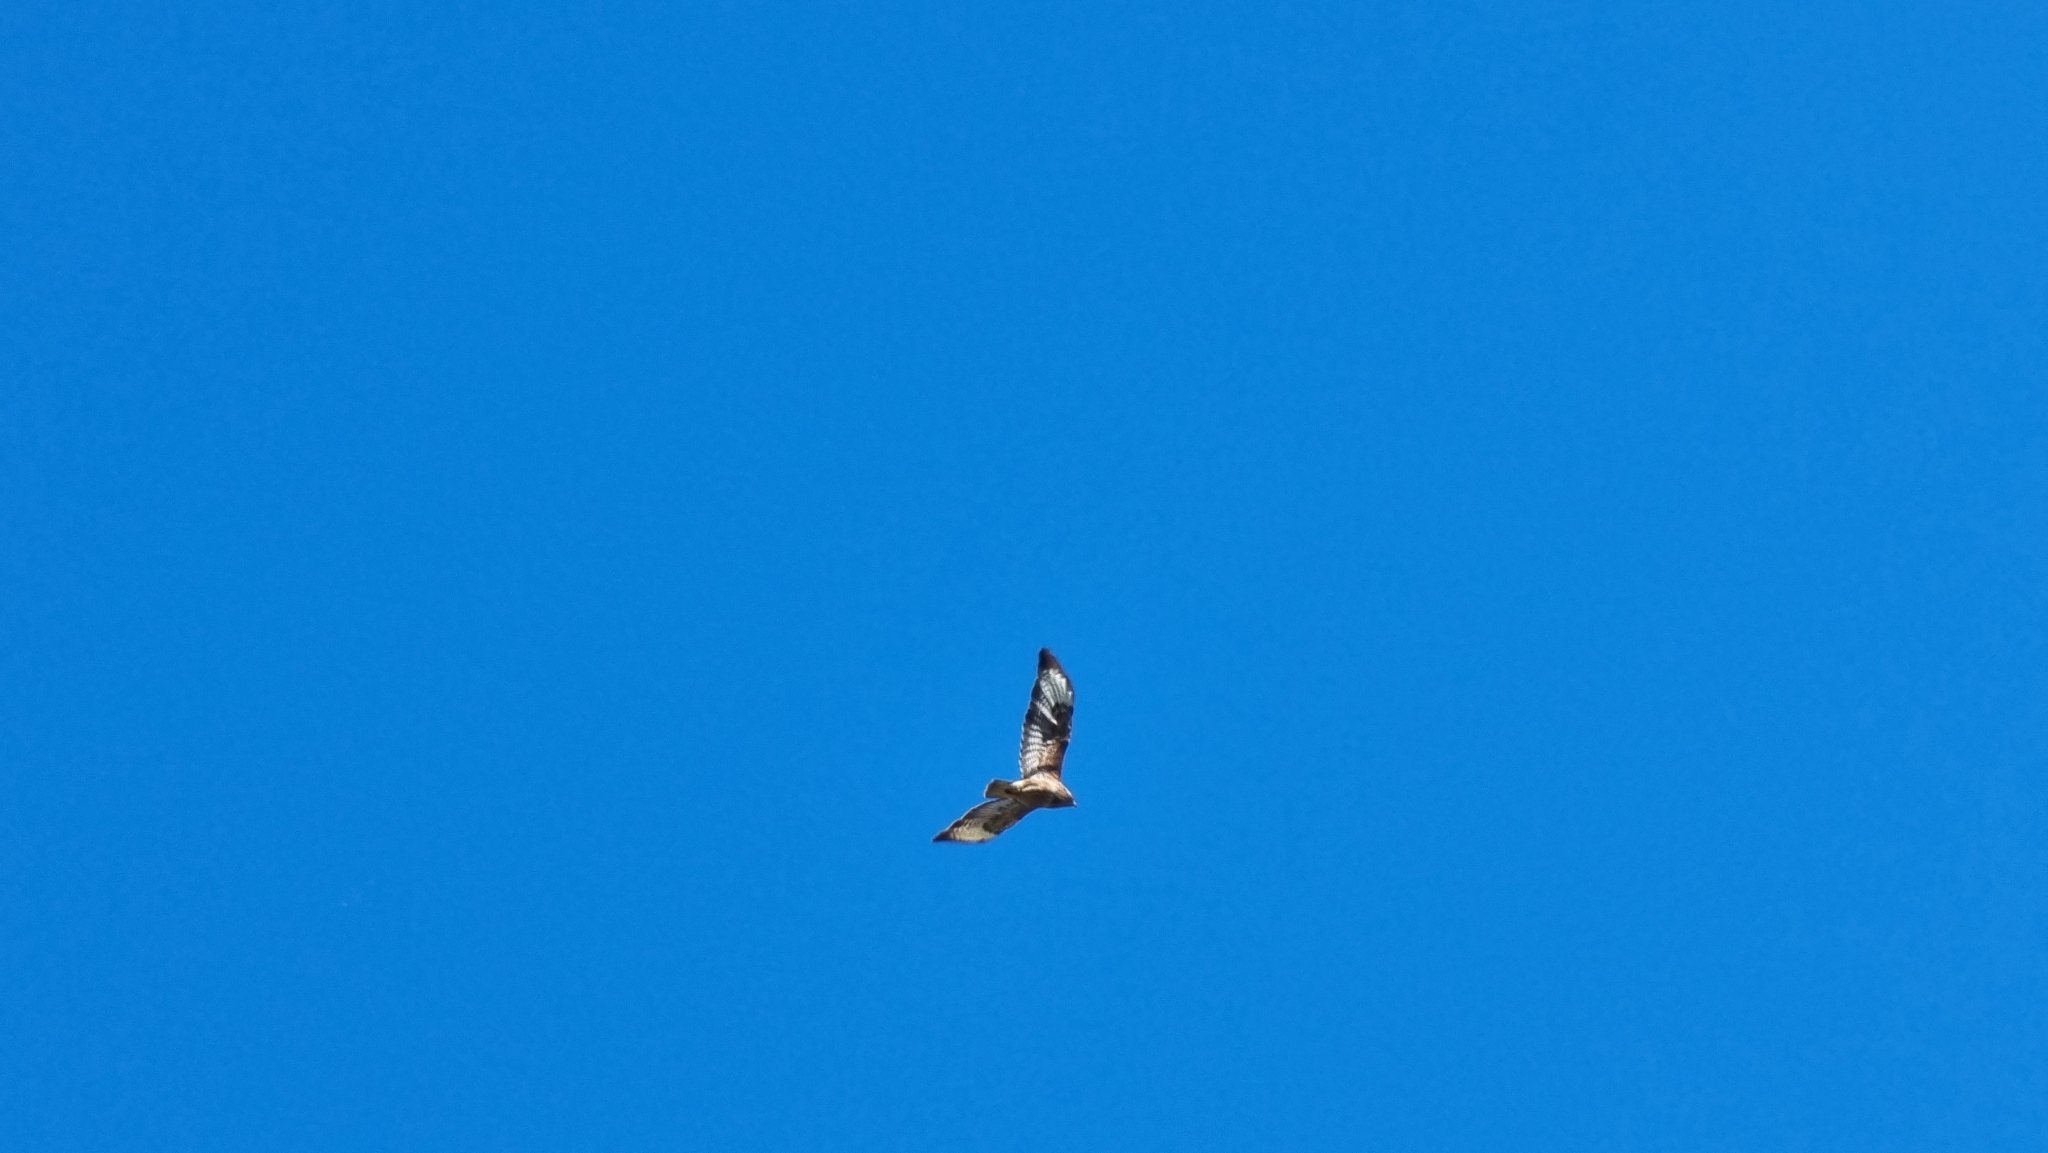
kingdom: Animalia
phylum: Chordata
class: Aves
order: Accipitriformes
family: Accipitridae
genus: Buteo
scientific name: Buteo buteo
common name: Common buzzard
